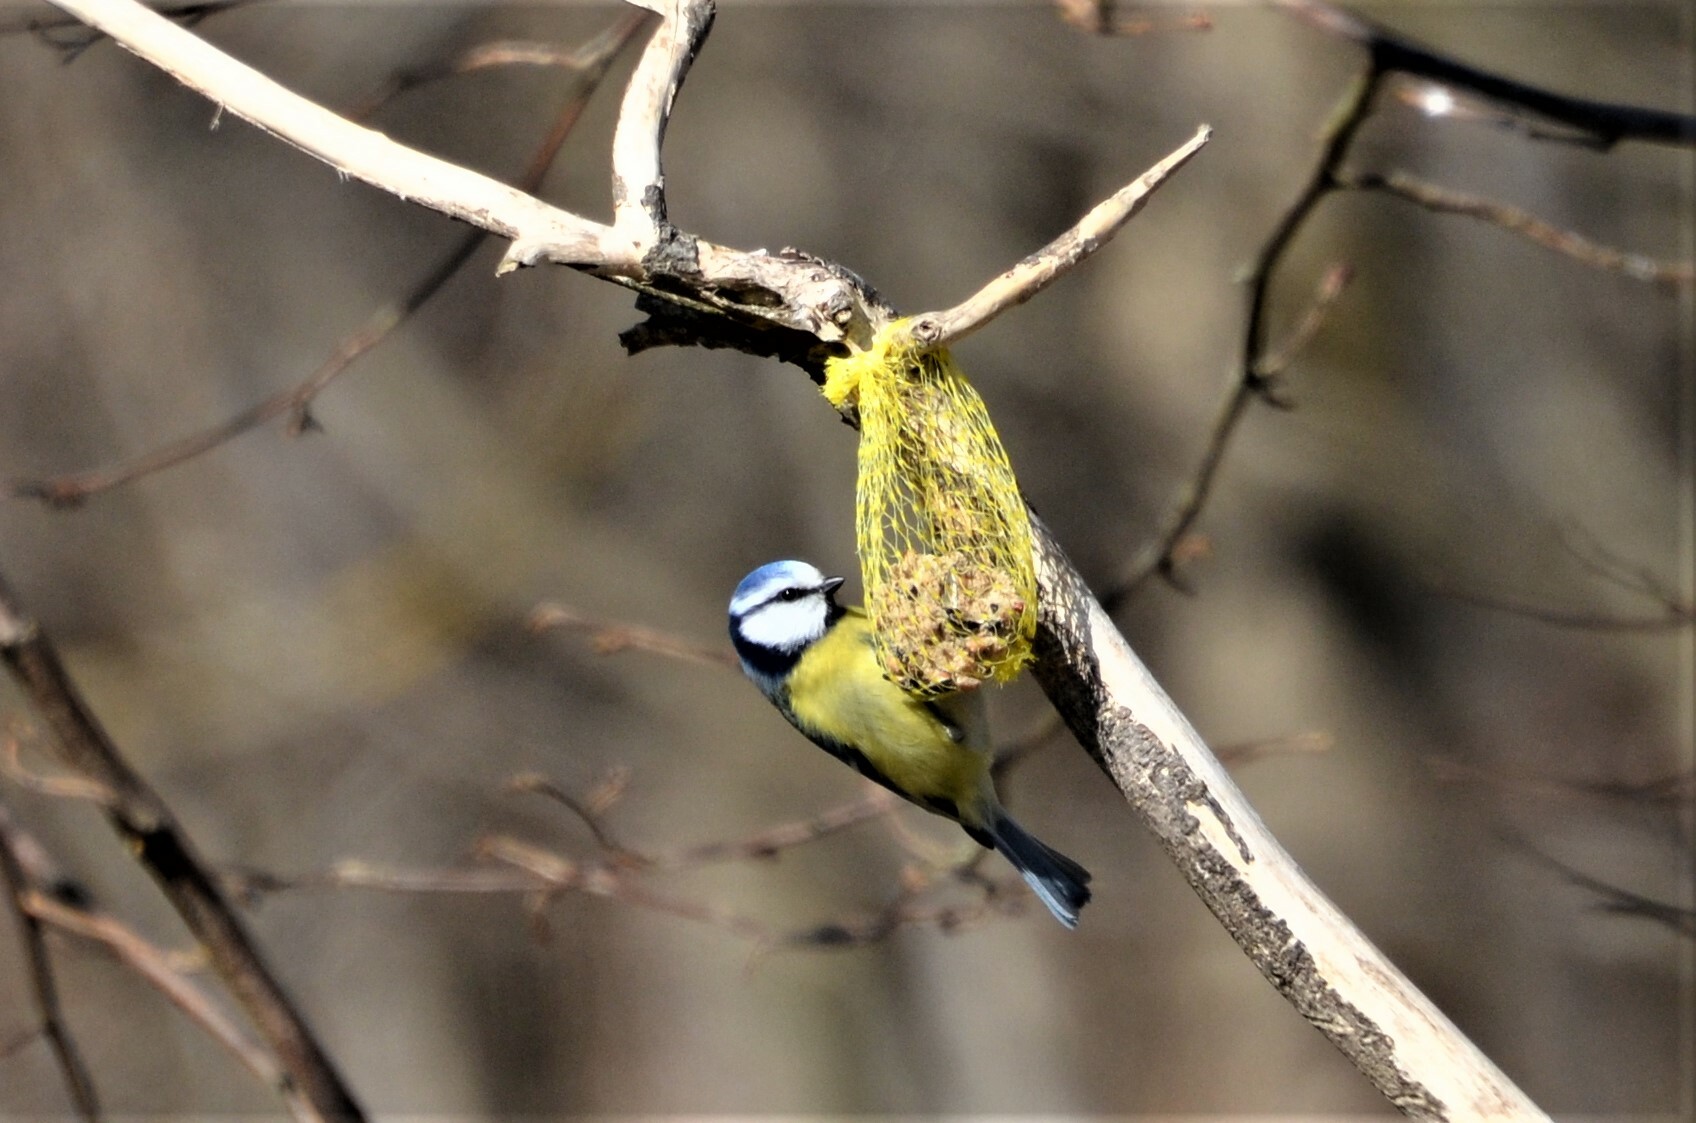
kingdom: Animalia
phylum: Chordata
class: Aves
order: Passeriformes
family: Paridae
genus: Cyanistes
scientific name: Cyanistes caeruleus
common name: Eurasian blue tit
